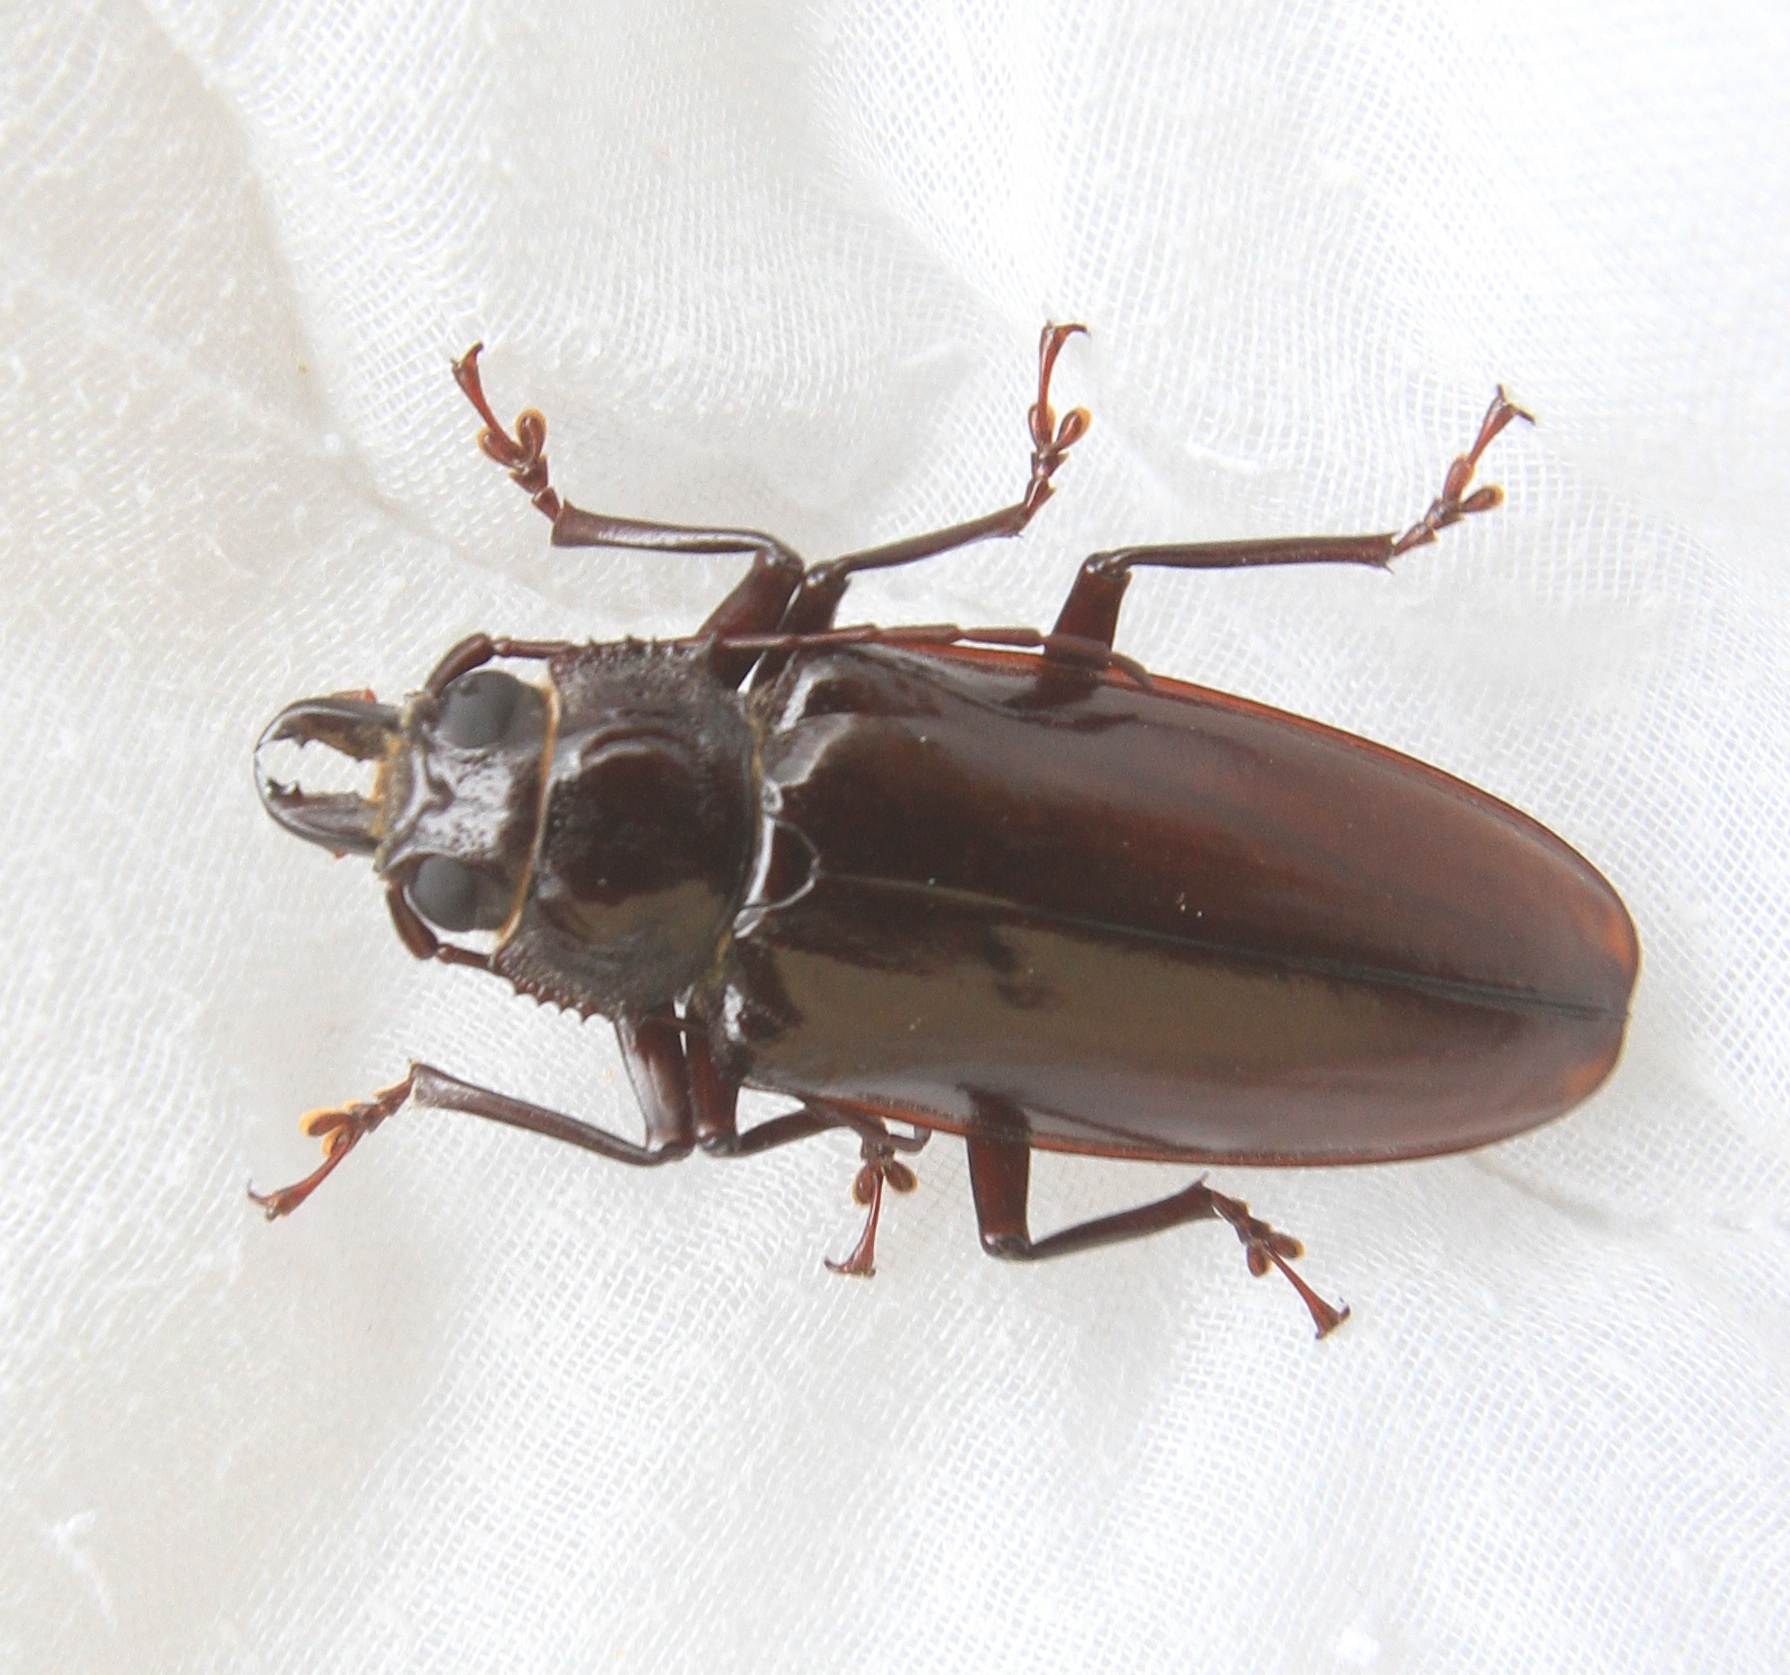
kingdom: Animalia
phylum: Arthropoda
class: Insecta
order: Coleoptera
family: Cerambycidae
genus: Stenodontes
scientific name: Stenodontes exsertus
